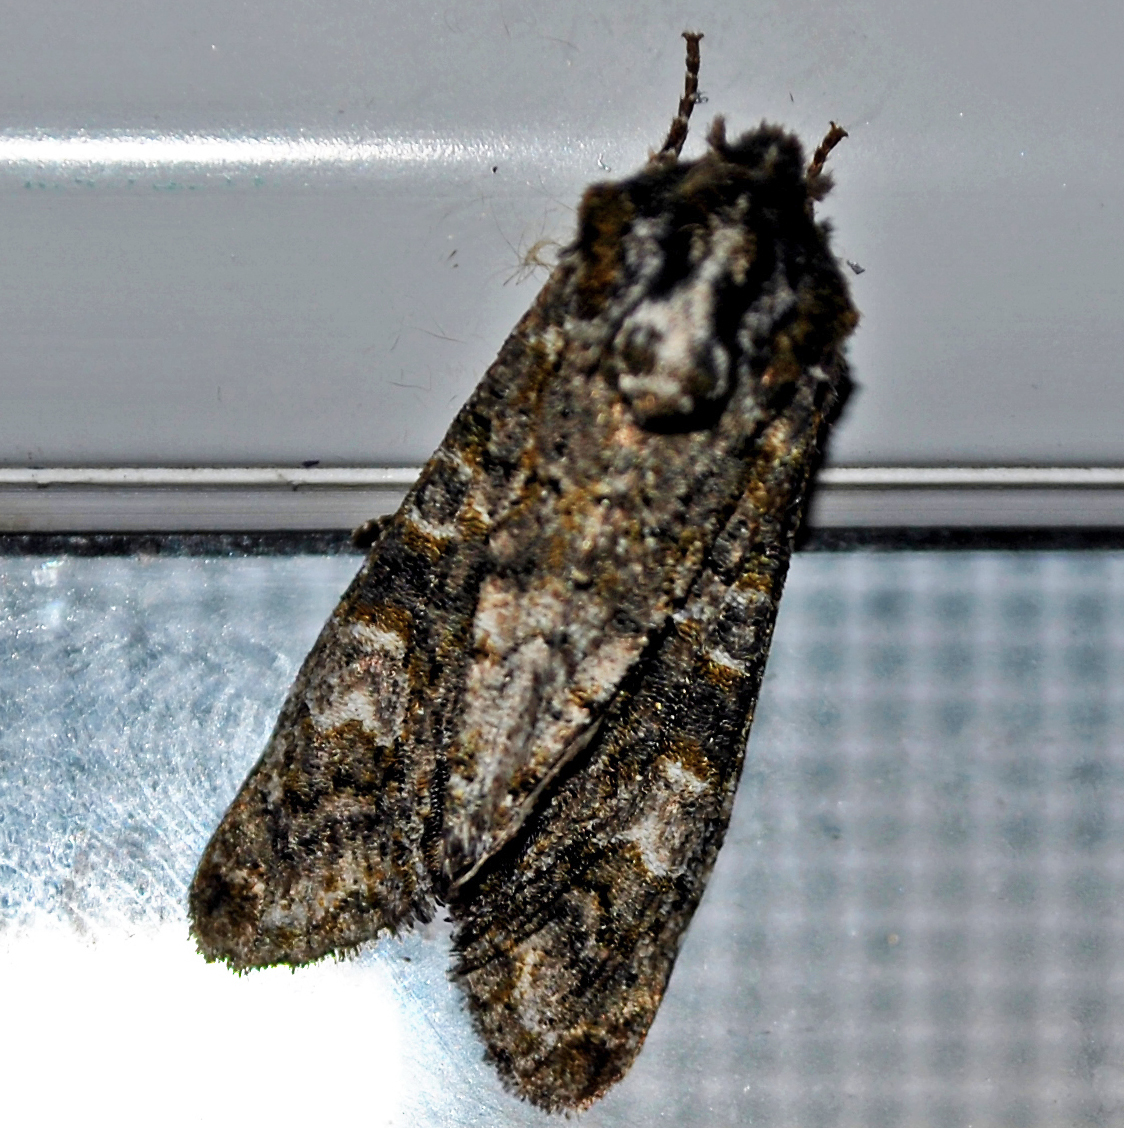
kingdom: Animalia
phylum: Arthropoda
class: Insecta
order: Lepidoptera
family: Noctuidae
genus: Psaphida
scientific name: Psaphida grotei
